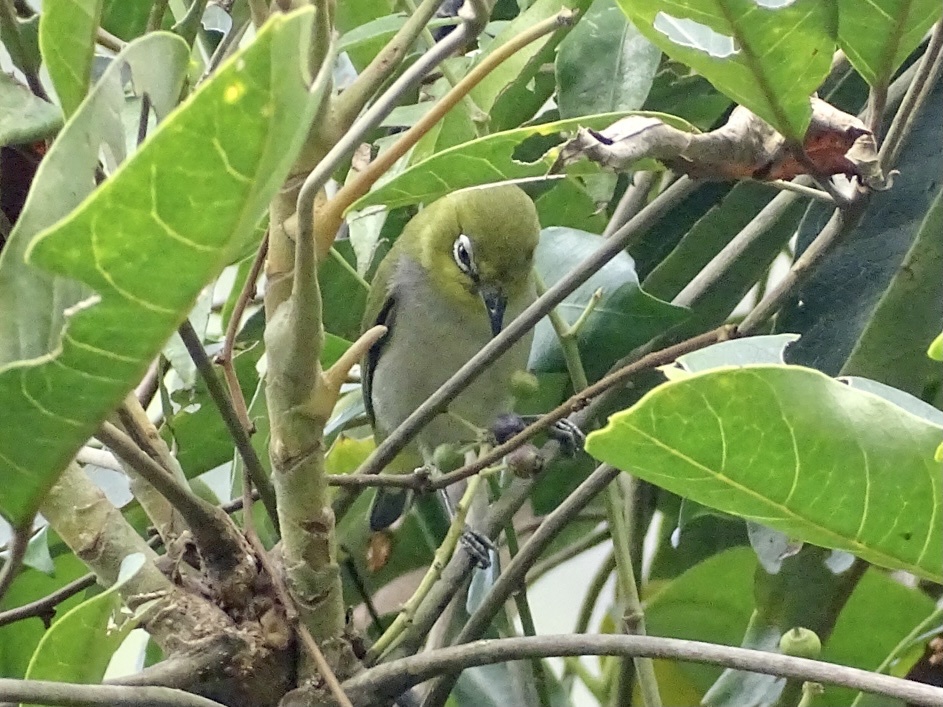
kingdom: Animalia
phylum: Chordata
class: Aves
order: Passeriformes
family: Zosteropidae
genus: Zosterops
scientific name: Zosterops simplex
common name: Swinhoe's white-eye
